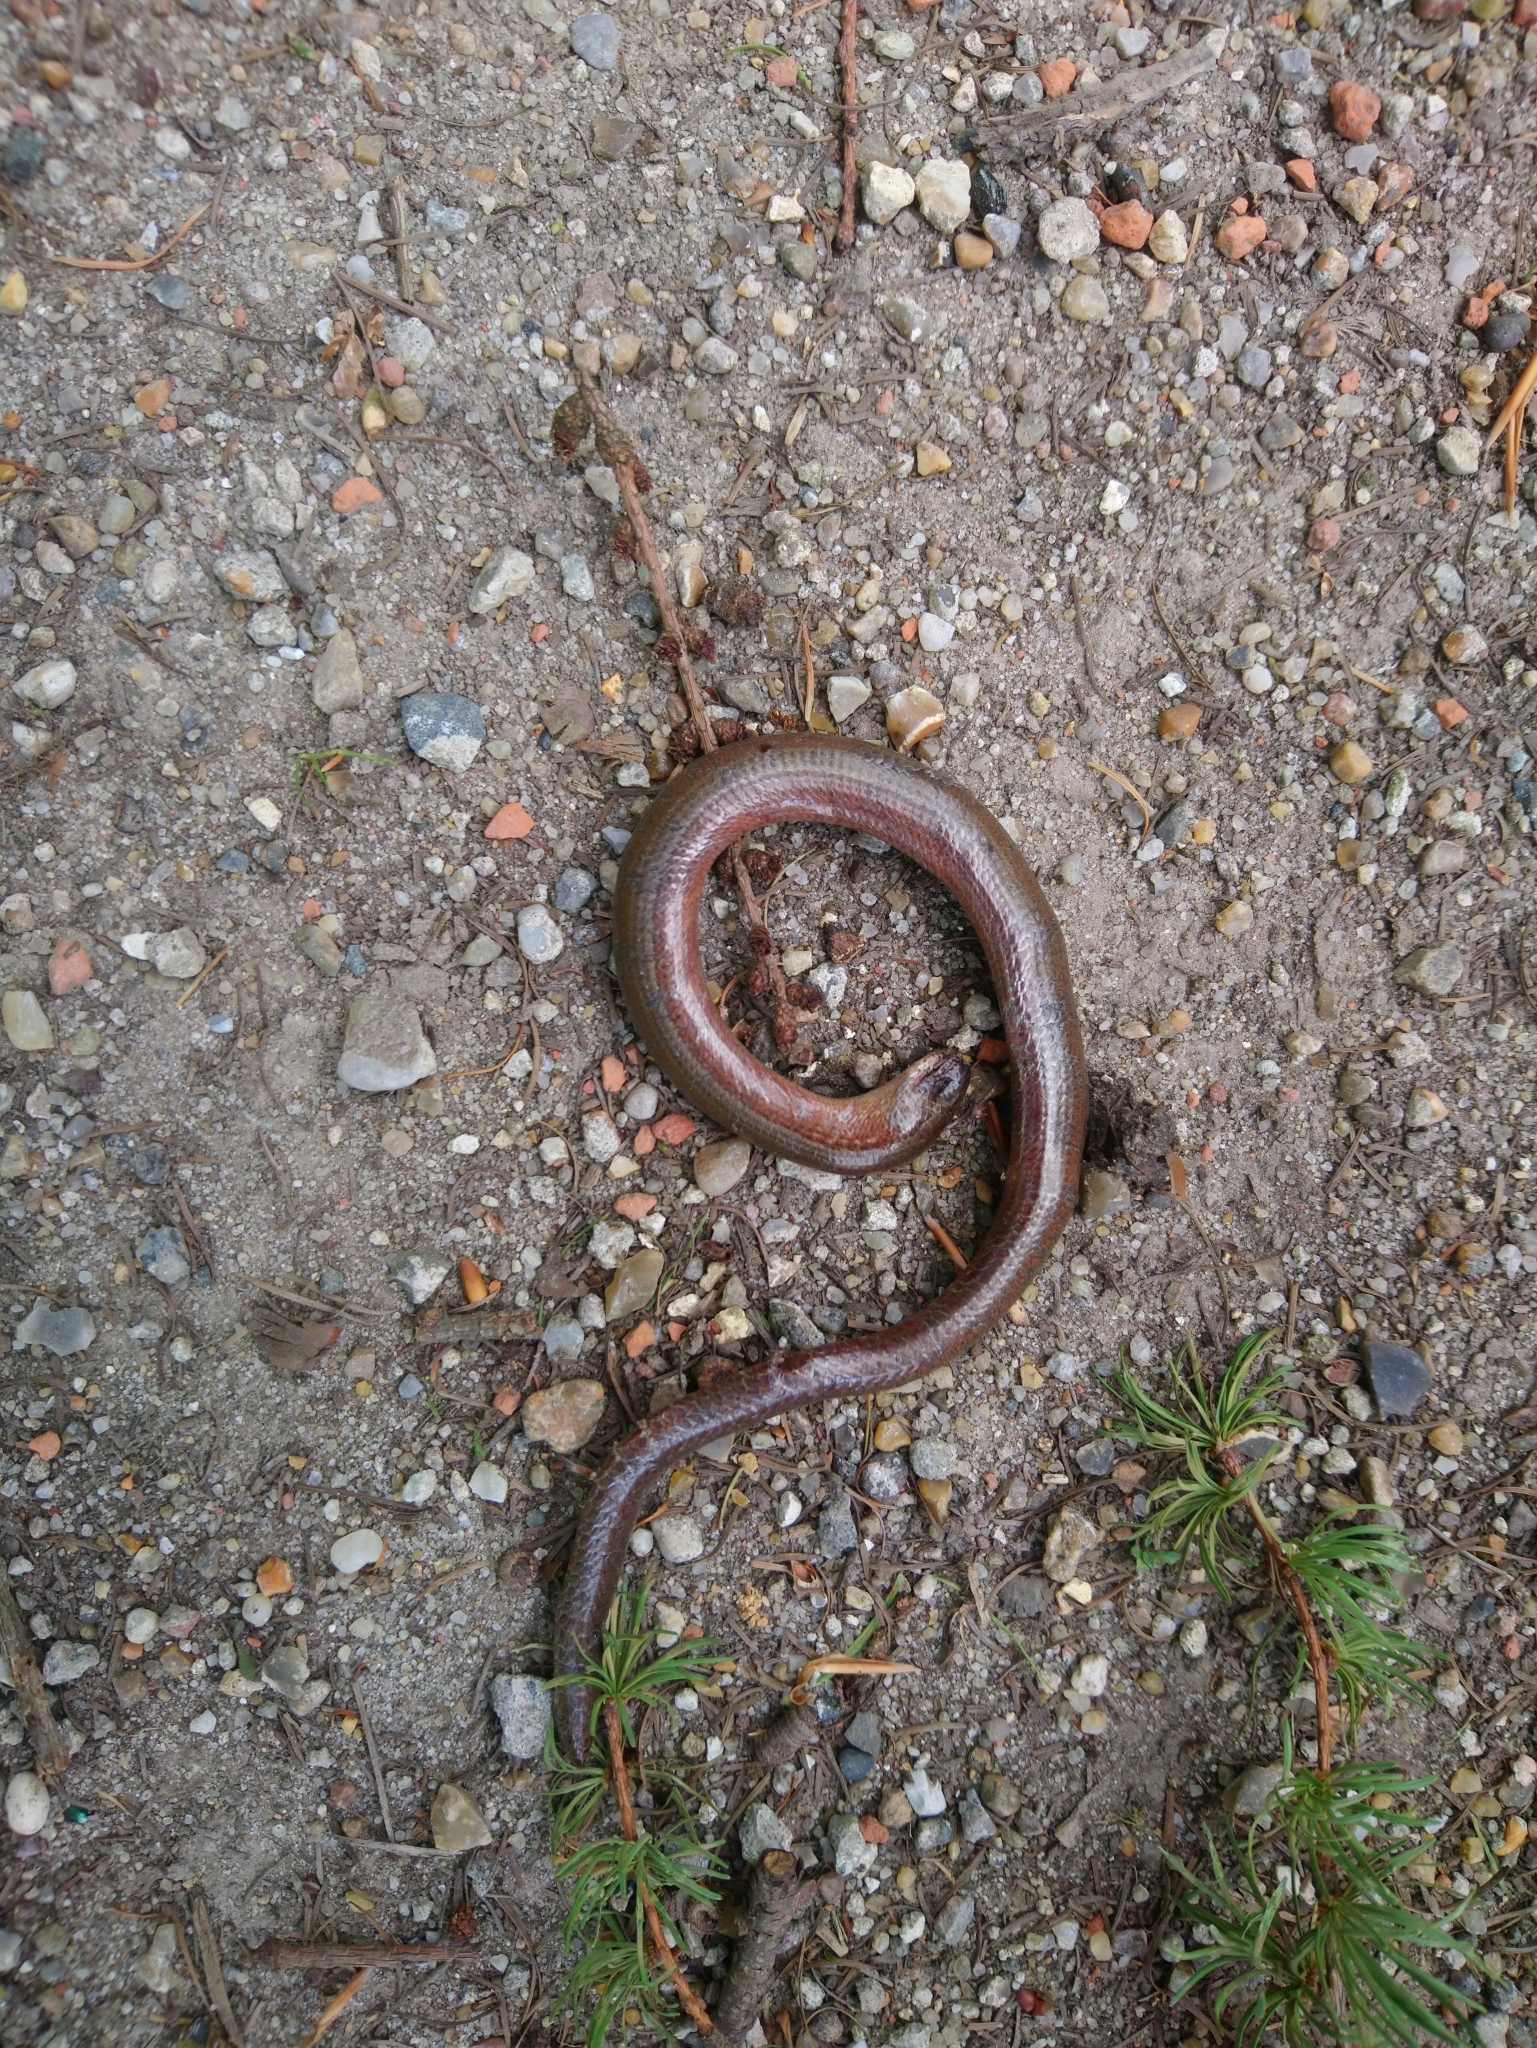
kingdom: Animalia
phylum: Chordata
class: Squamata
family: Anguidae
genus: Anguis
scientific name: Anguis fragilis
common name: Slow worm
